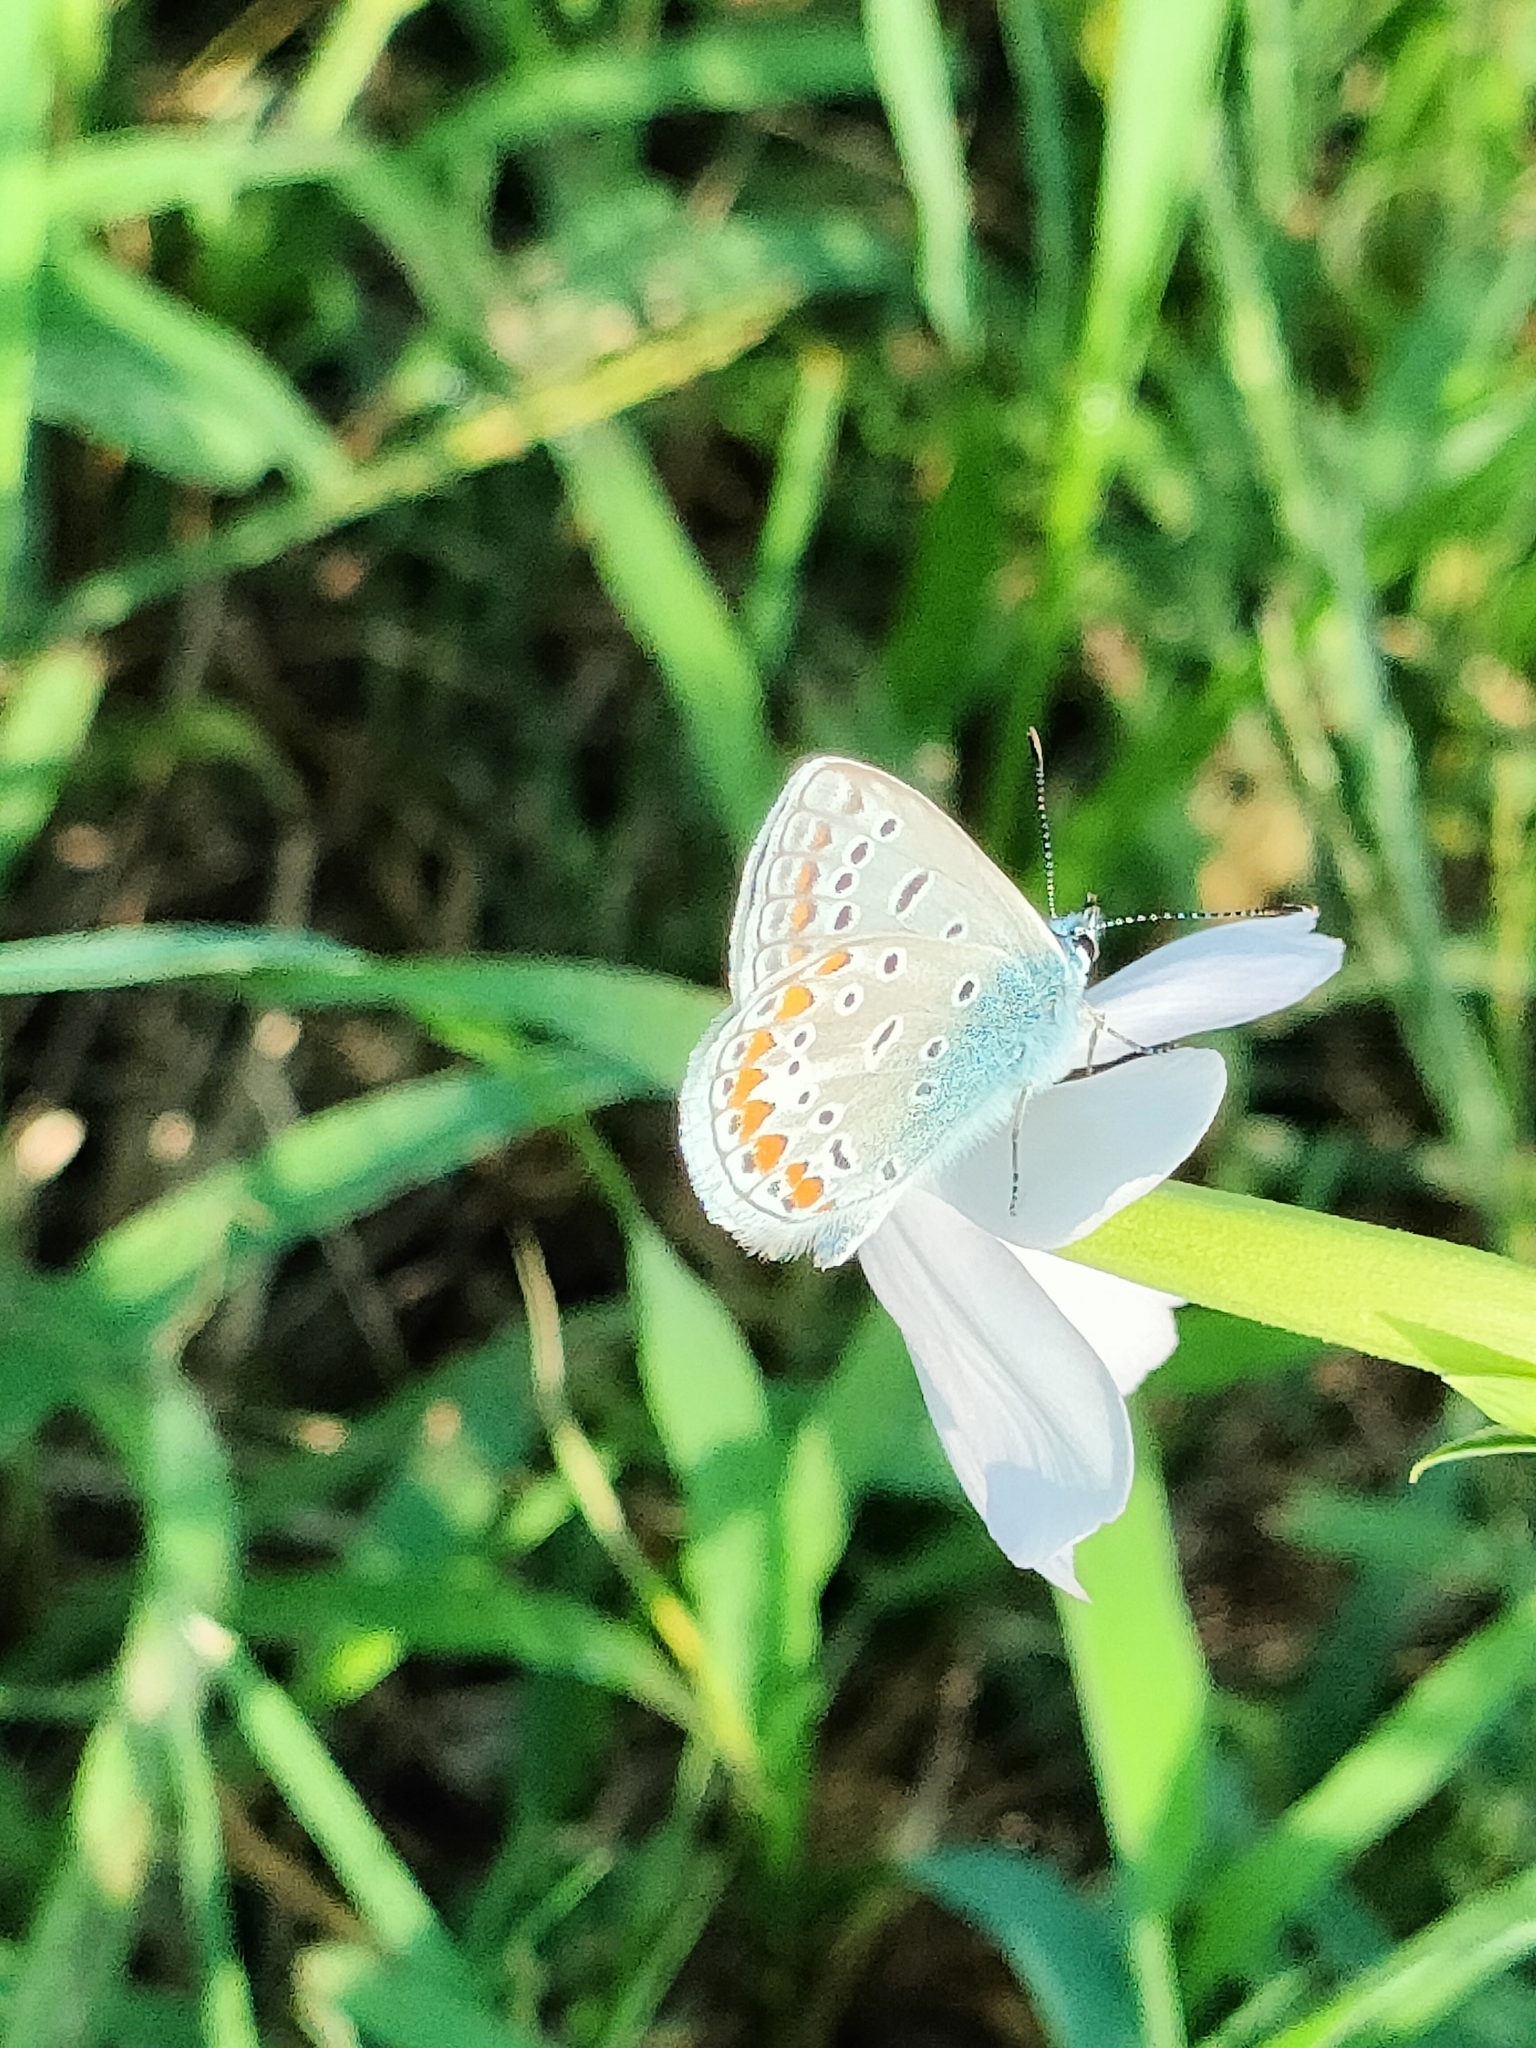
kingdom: Animalia
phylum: Arthropoda
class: Insecta
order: Lepidoptera
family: Lycaenidae
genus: Polyommatus
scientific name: Polyommatus icarus
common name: Common blue
